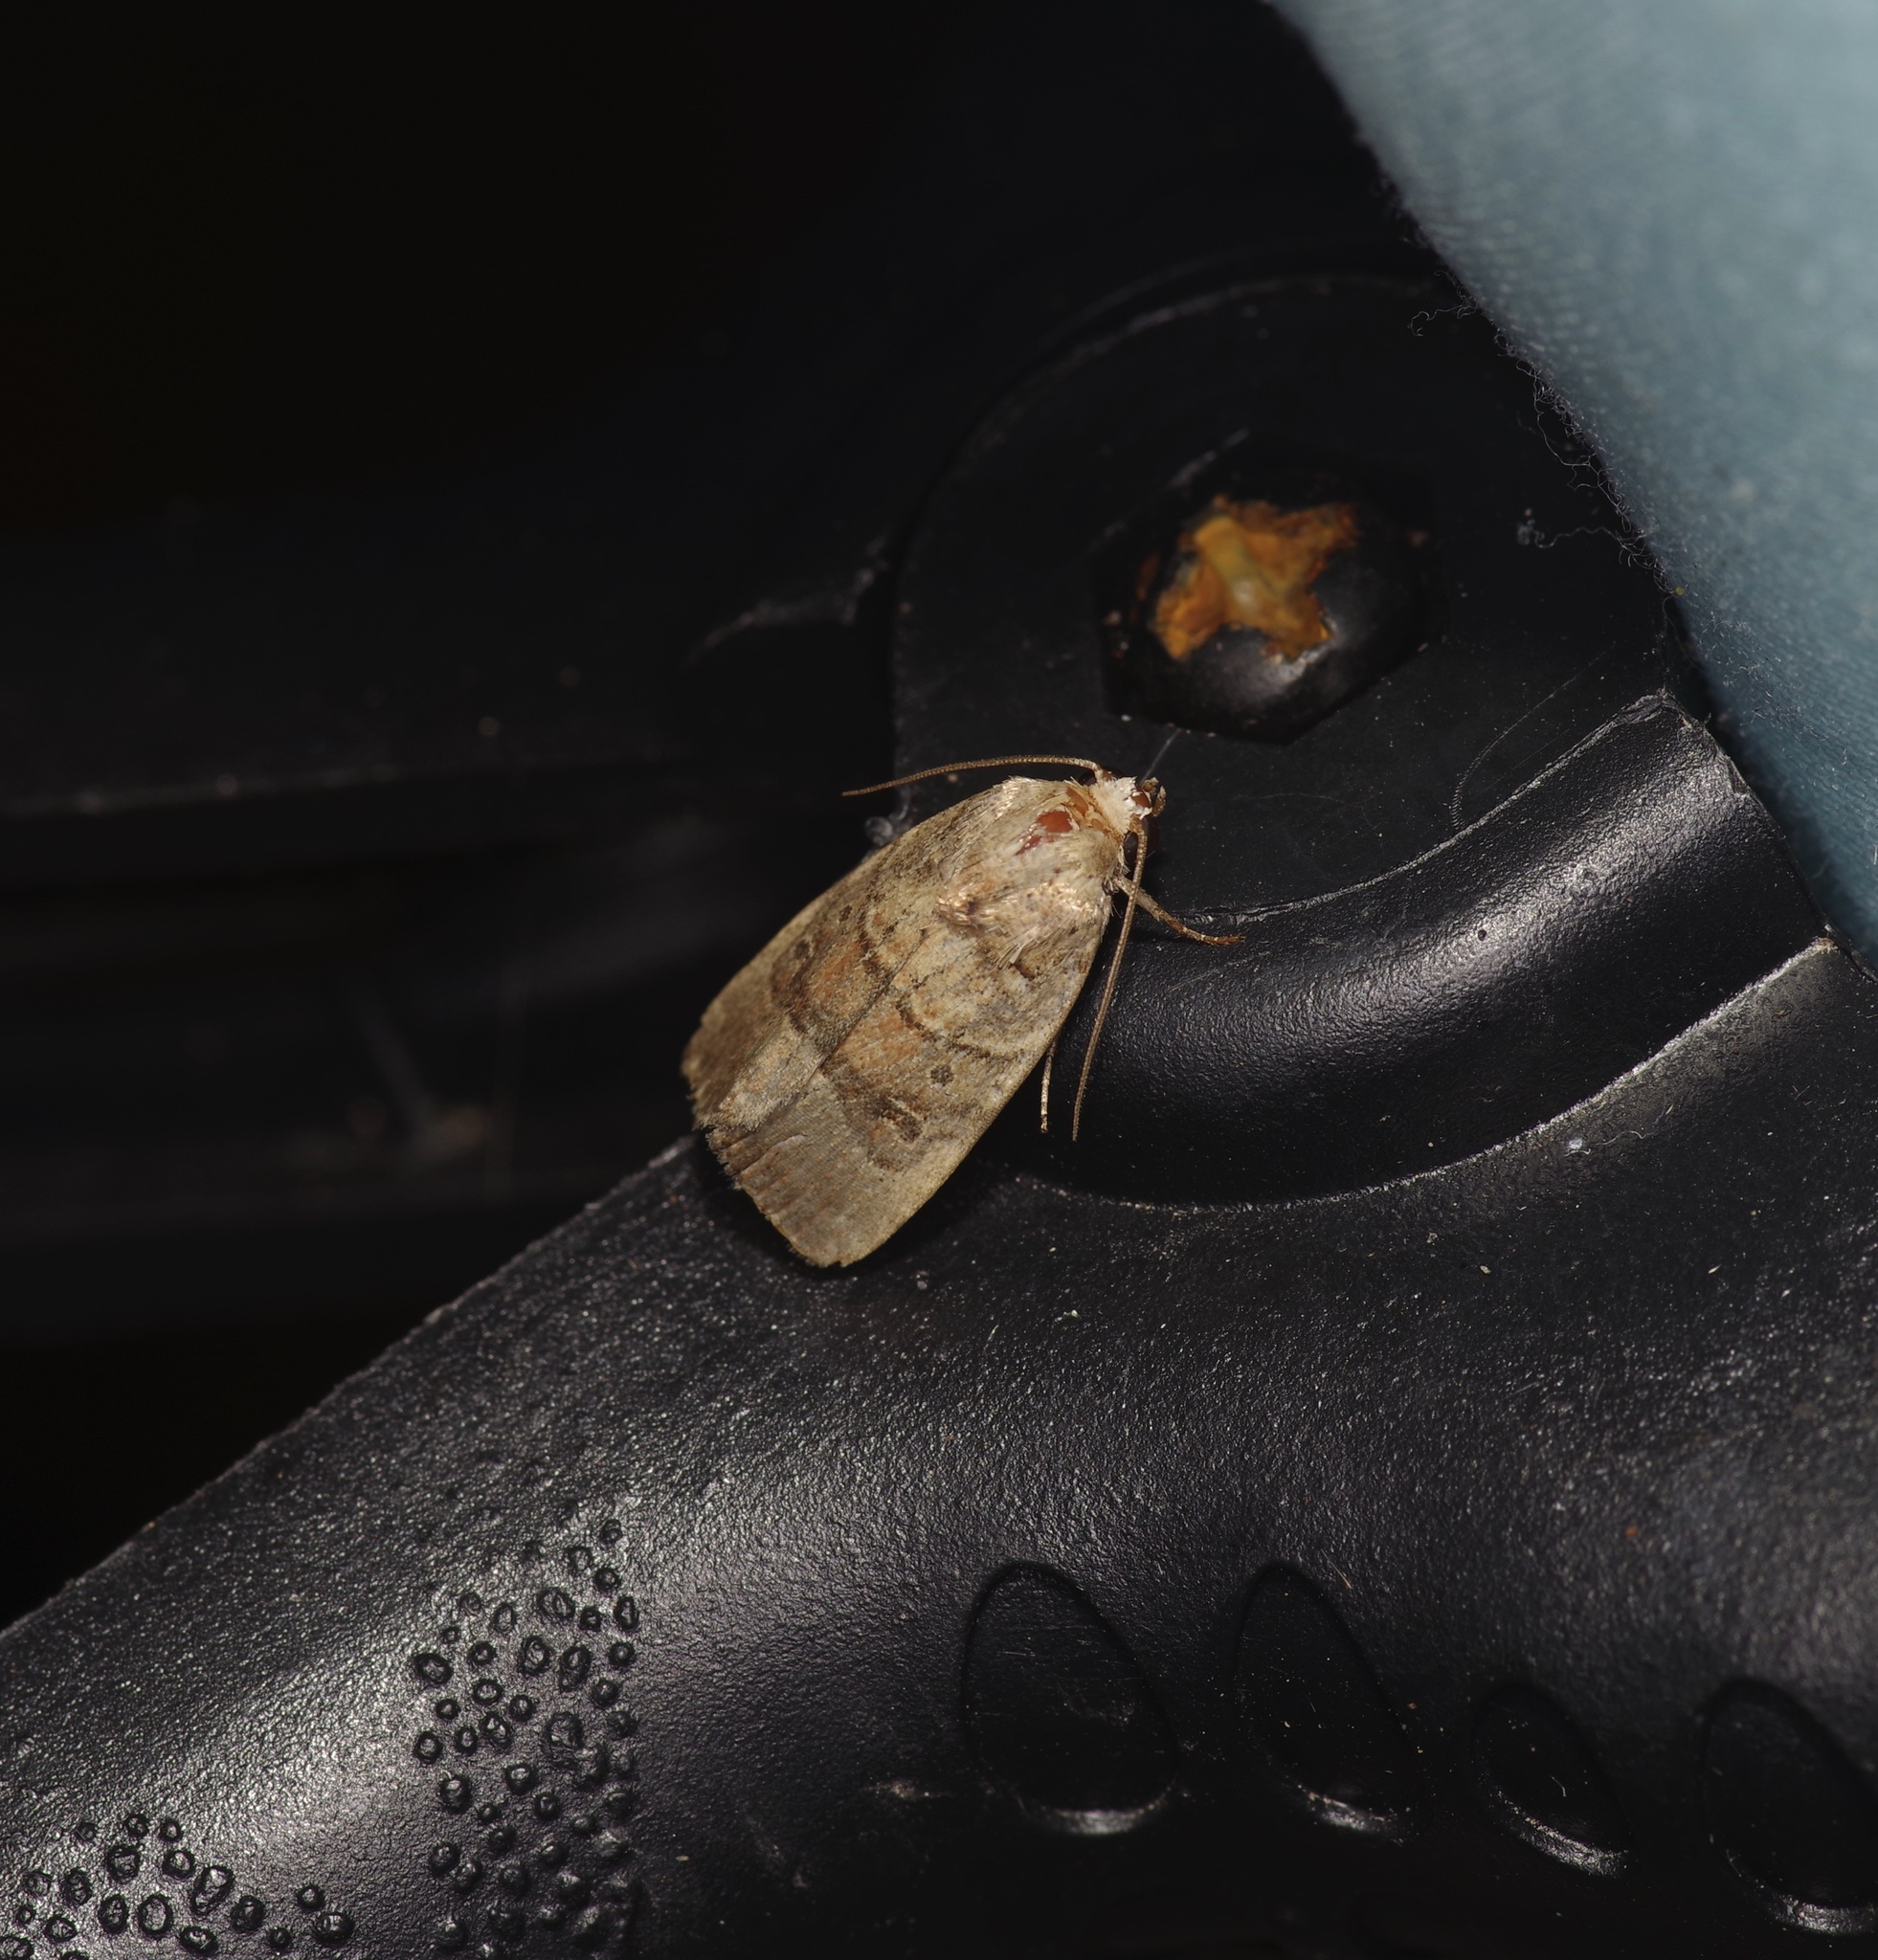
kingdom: Animalia
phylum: Arthropoda
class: Insecta
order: Lepidoptera
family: Noctuidae
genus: Elaphria
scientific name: Elaphria fuscimacula
